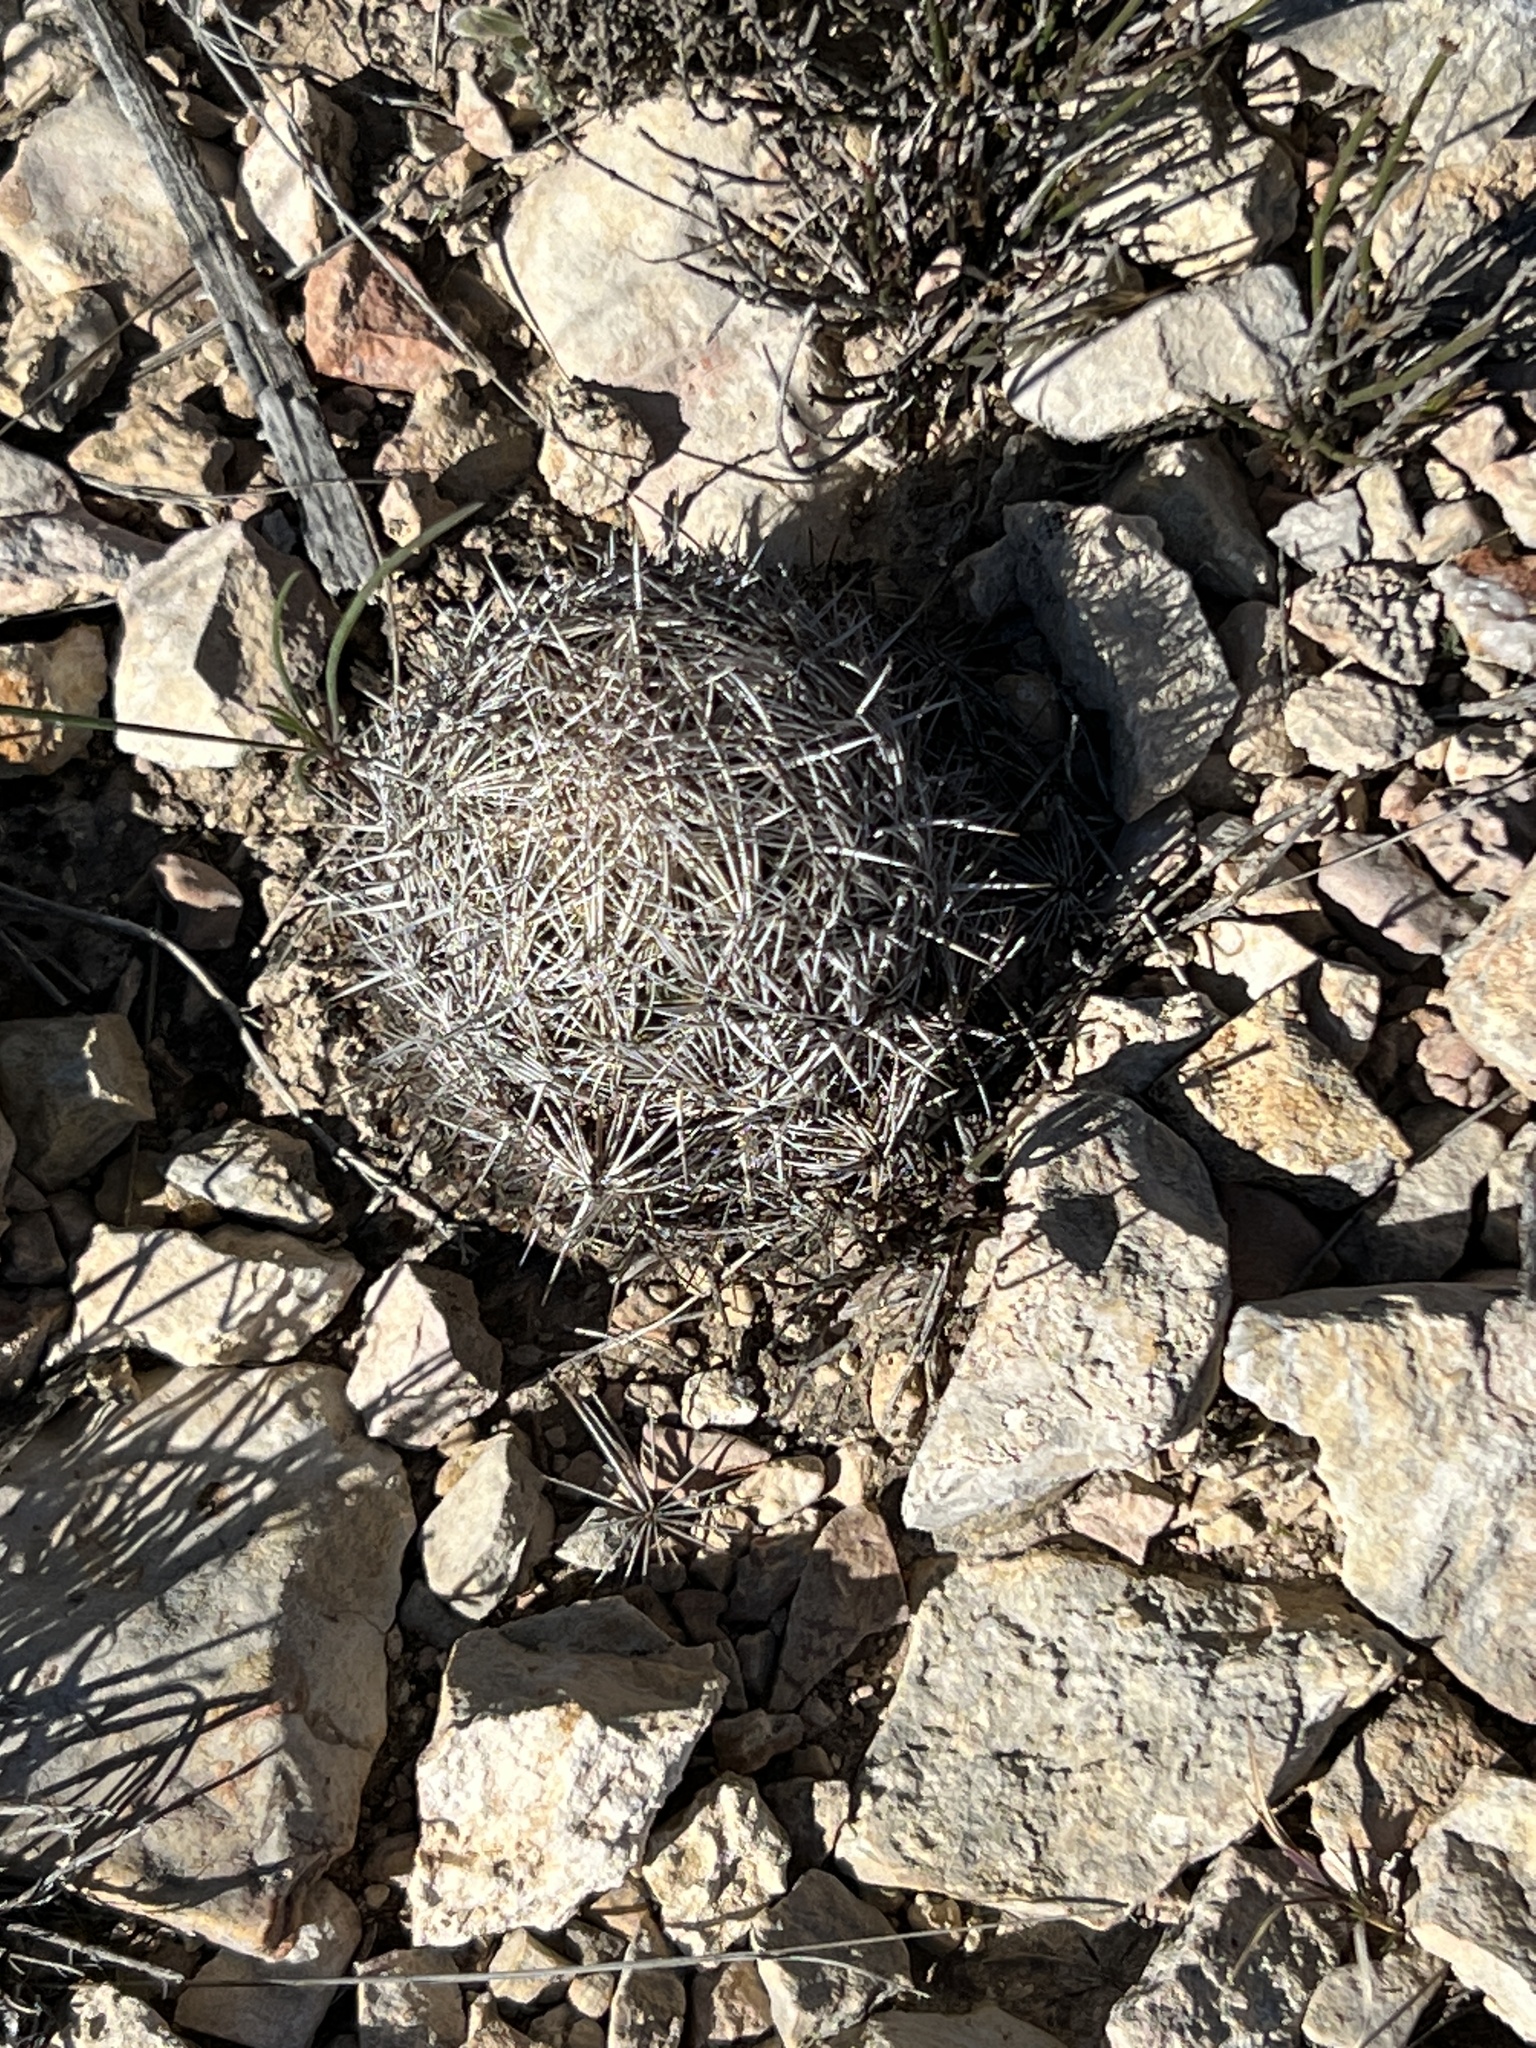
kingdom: Plantae
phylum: Tracheophyta
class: Magnoliopsida
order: Caryophyllales
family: Cactaceae
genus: Coryphantha
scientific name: Coryphantha echinus
